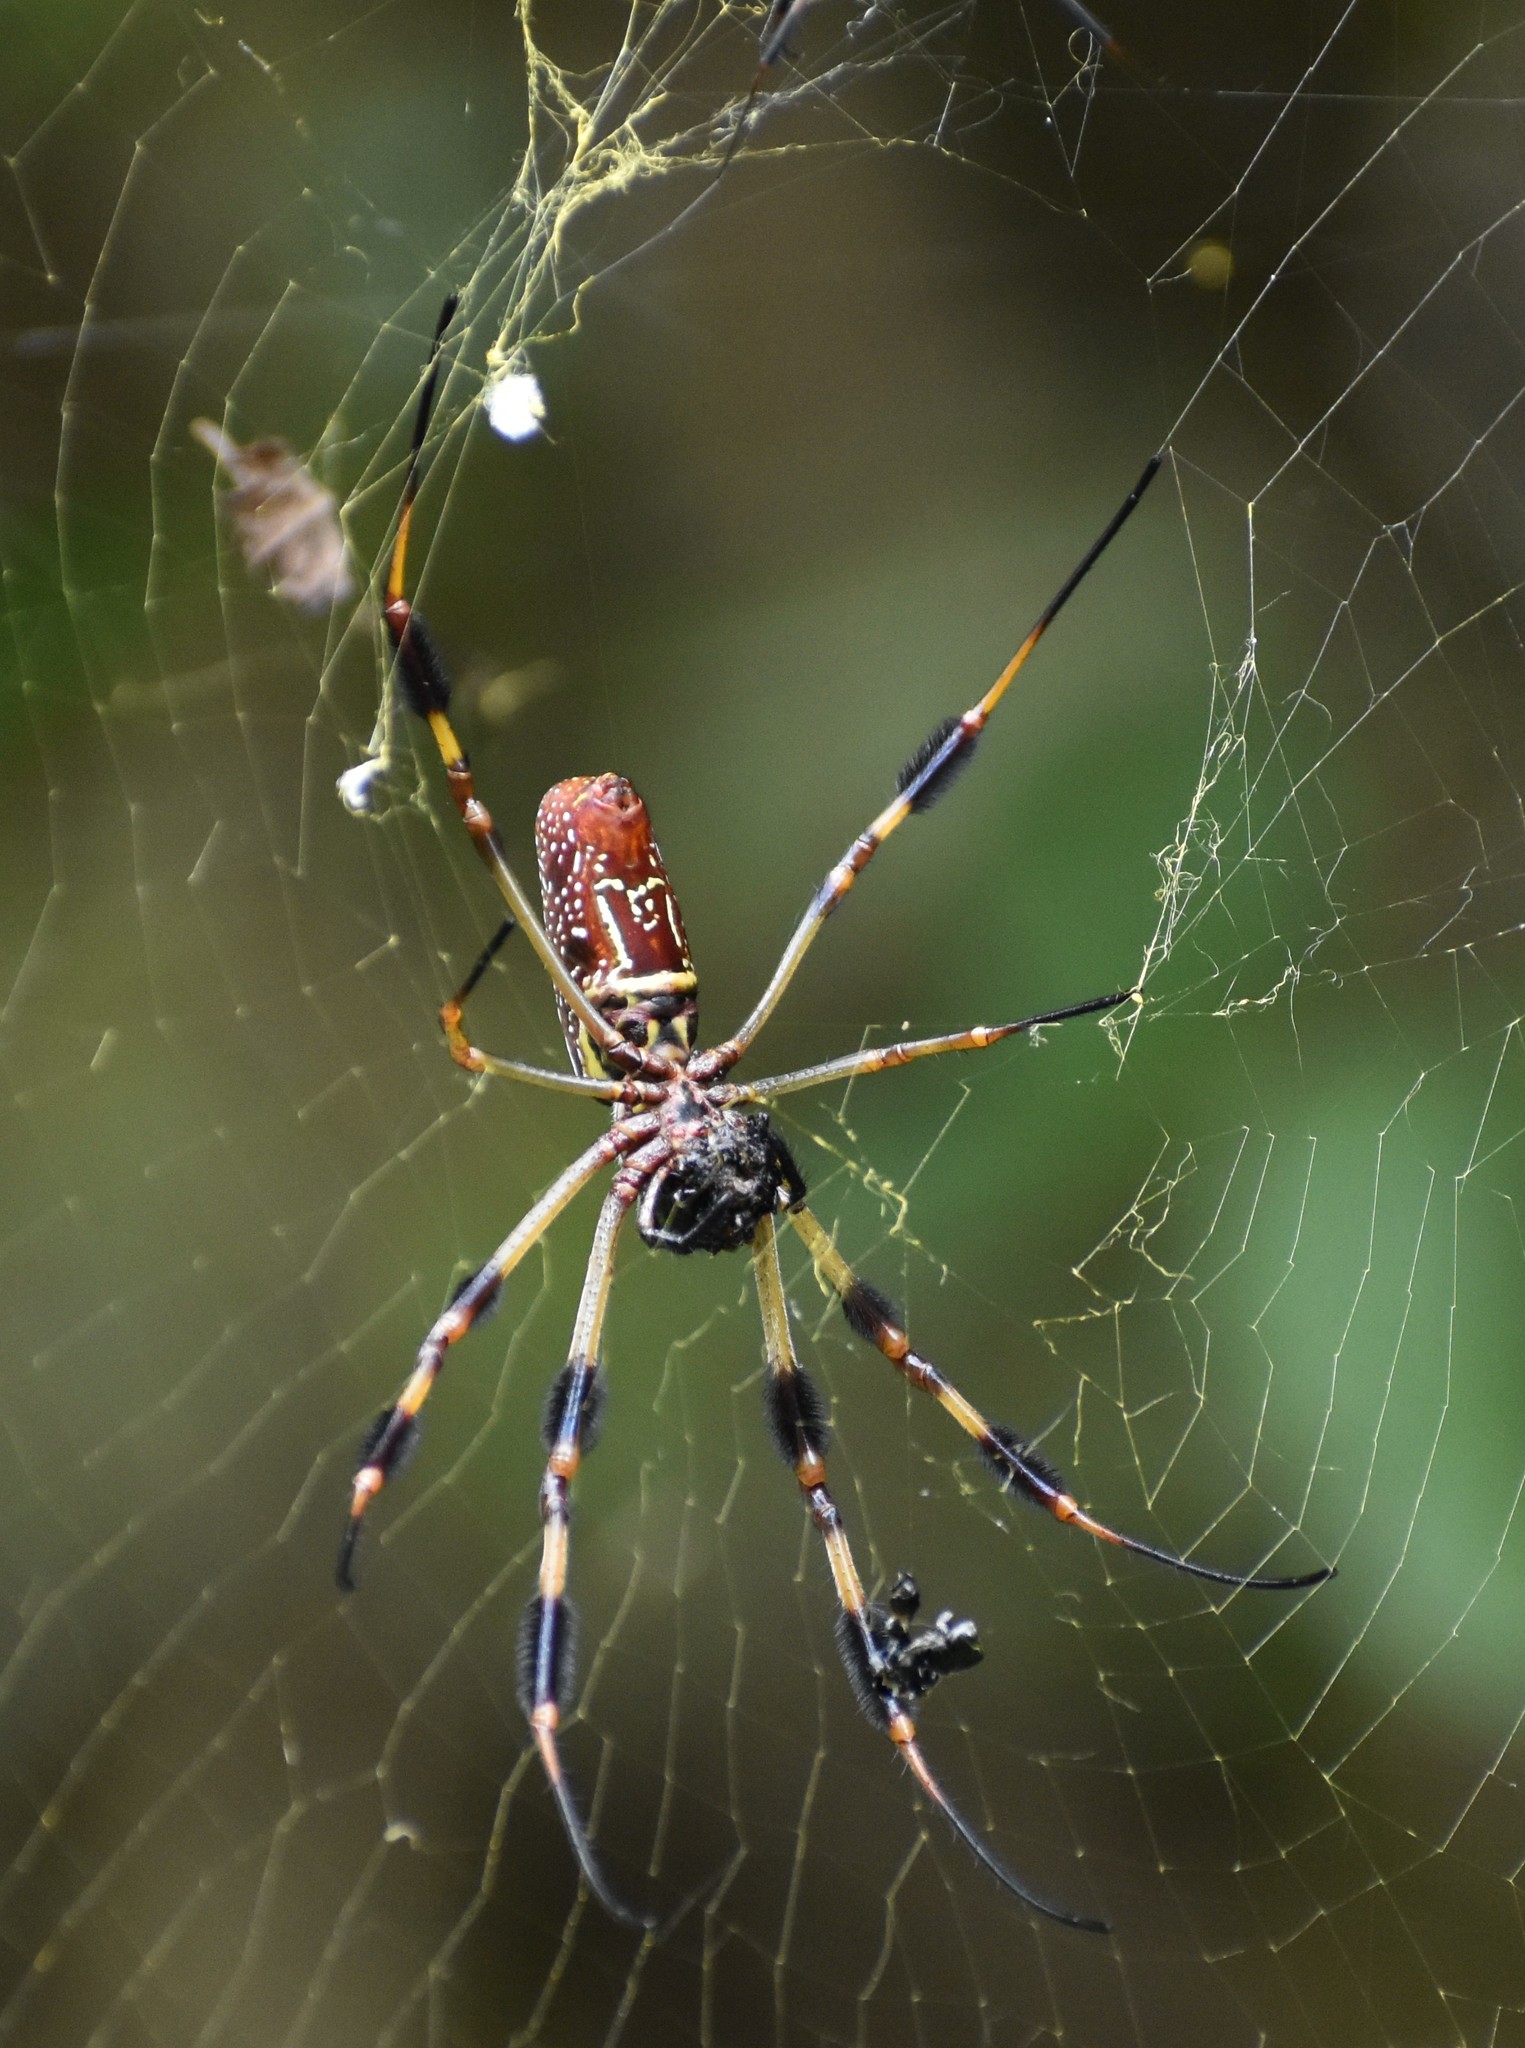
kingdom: Animalia
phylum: Arthropoda
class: Arachnida
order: Araneae
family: Araneidae
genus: Trichonephila
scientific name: Trichonephila clavipes
